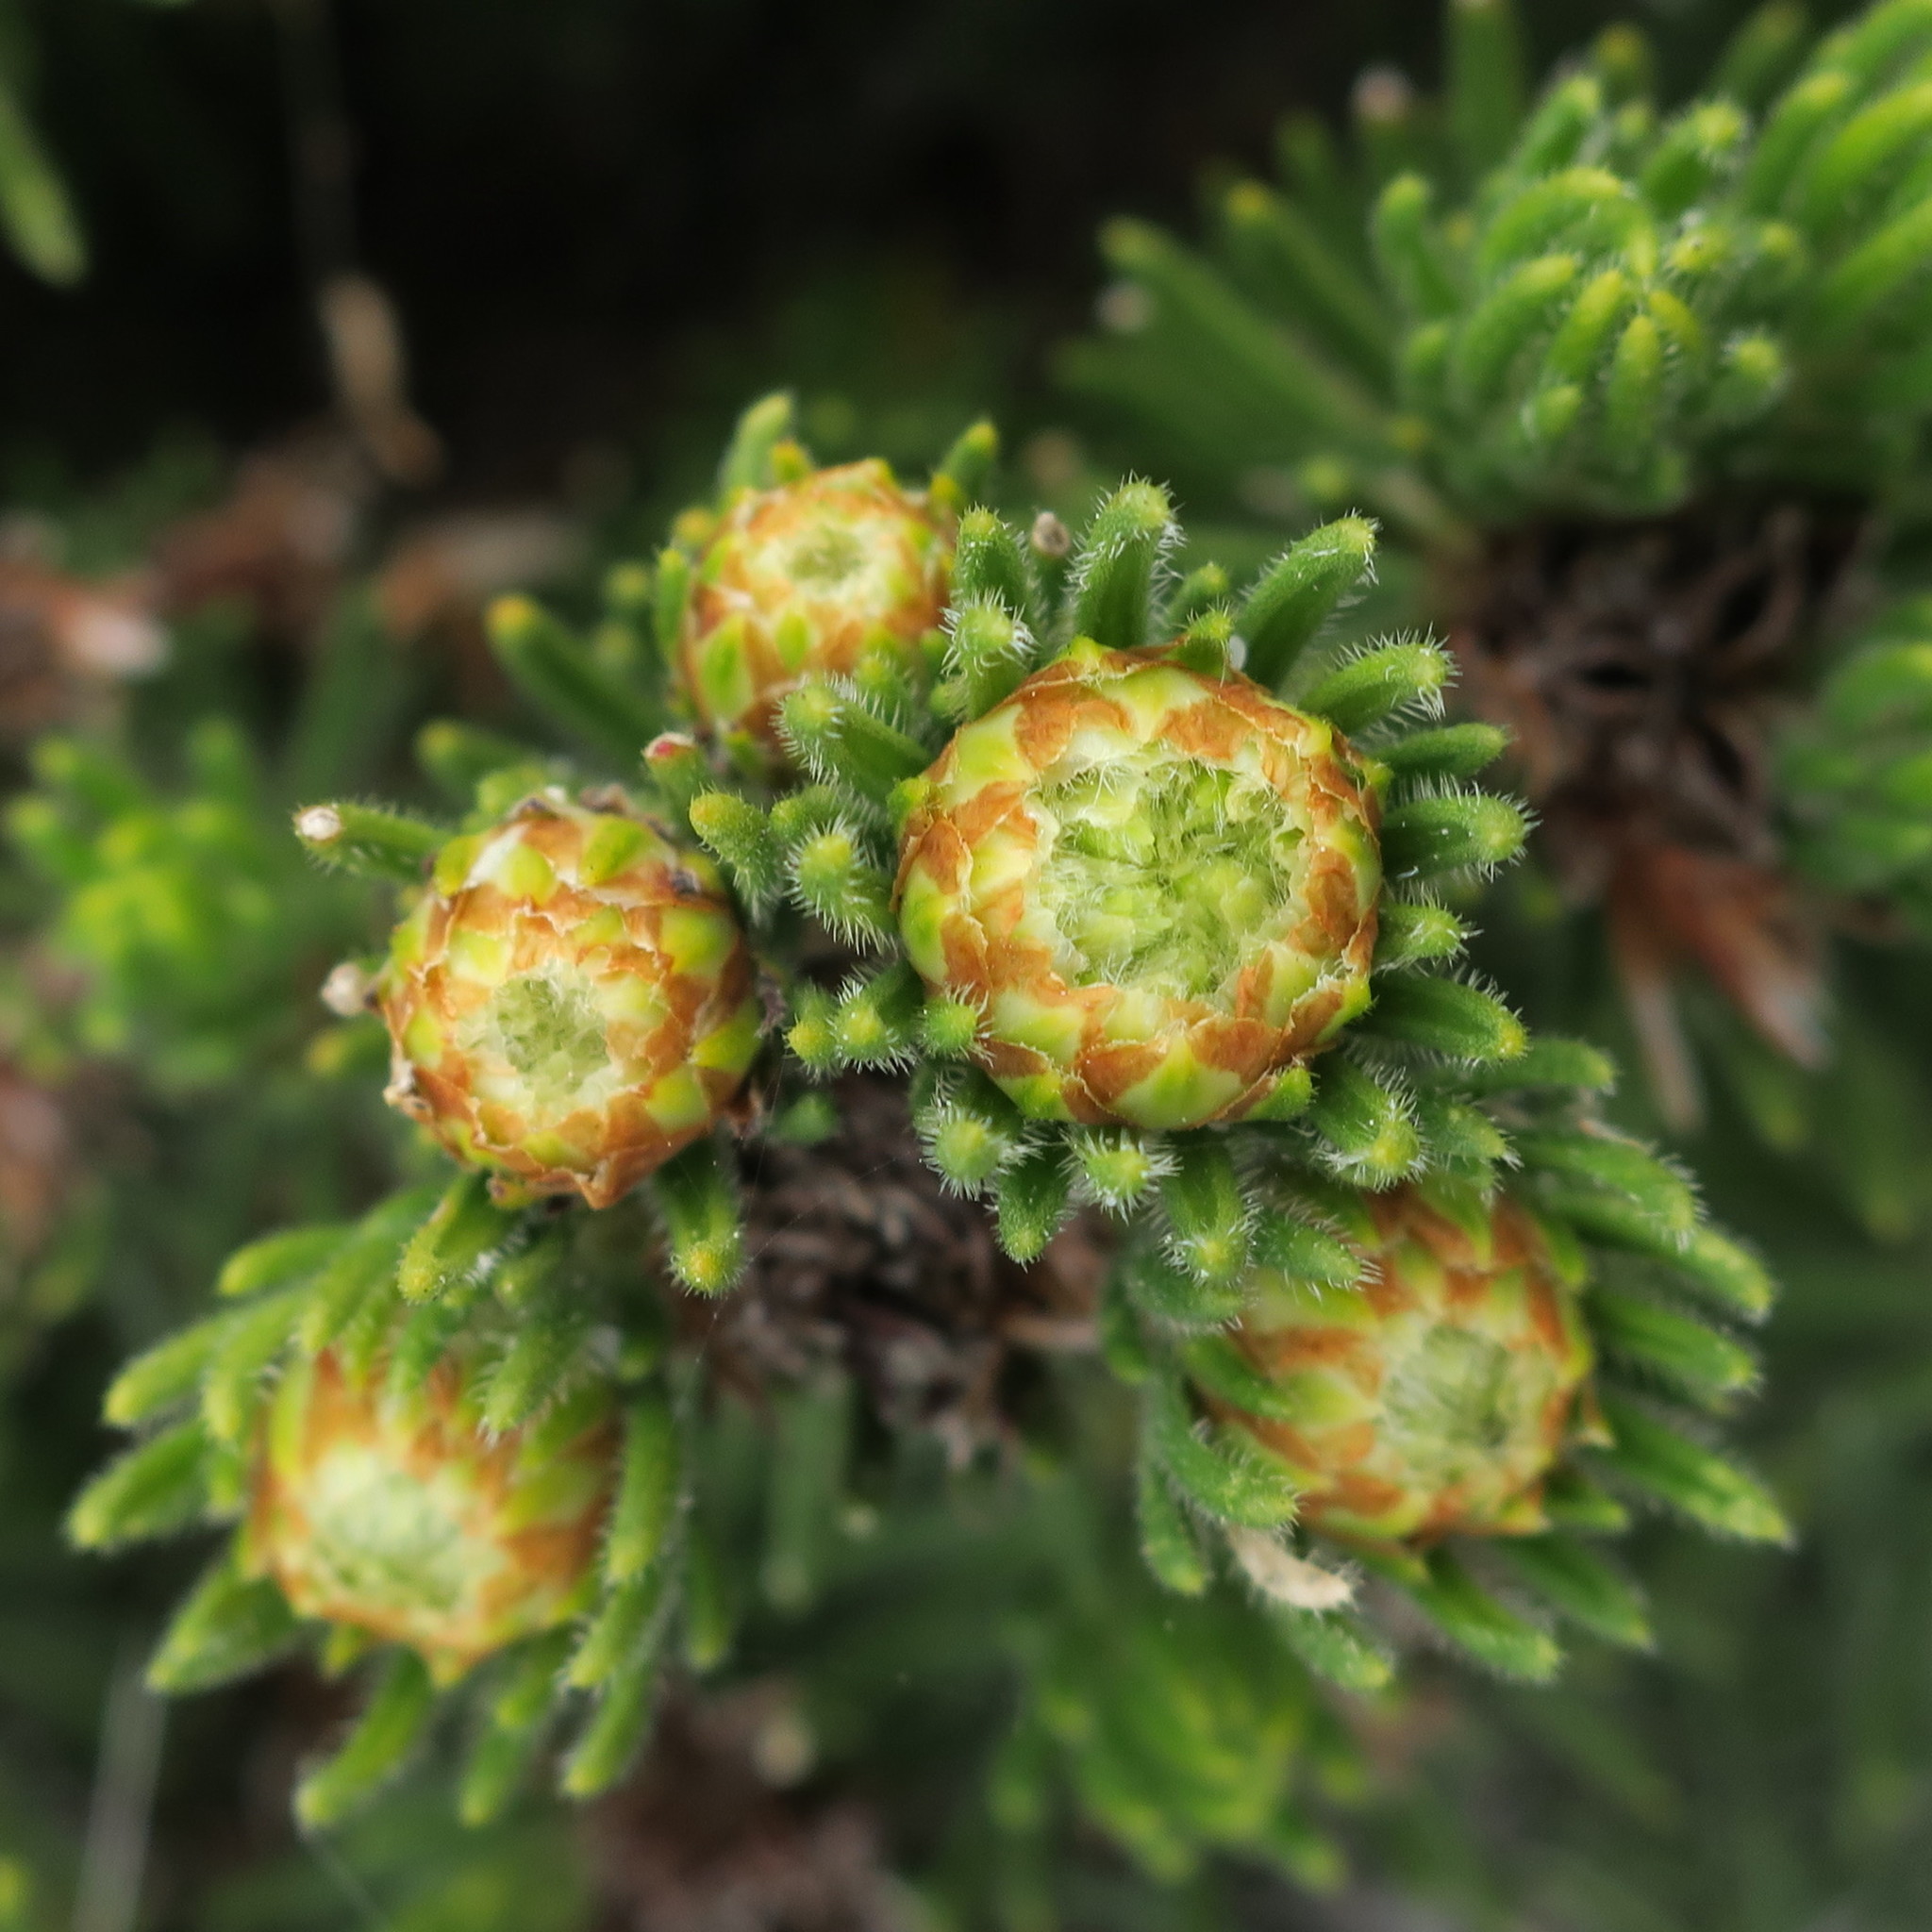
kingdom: Plantae
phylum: Tracheophyta
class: Magnoliopsida
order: Sapindales
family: Rutaceae
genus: Agathosma
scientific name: Agathosma hookeri
